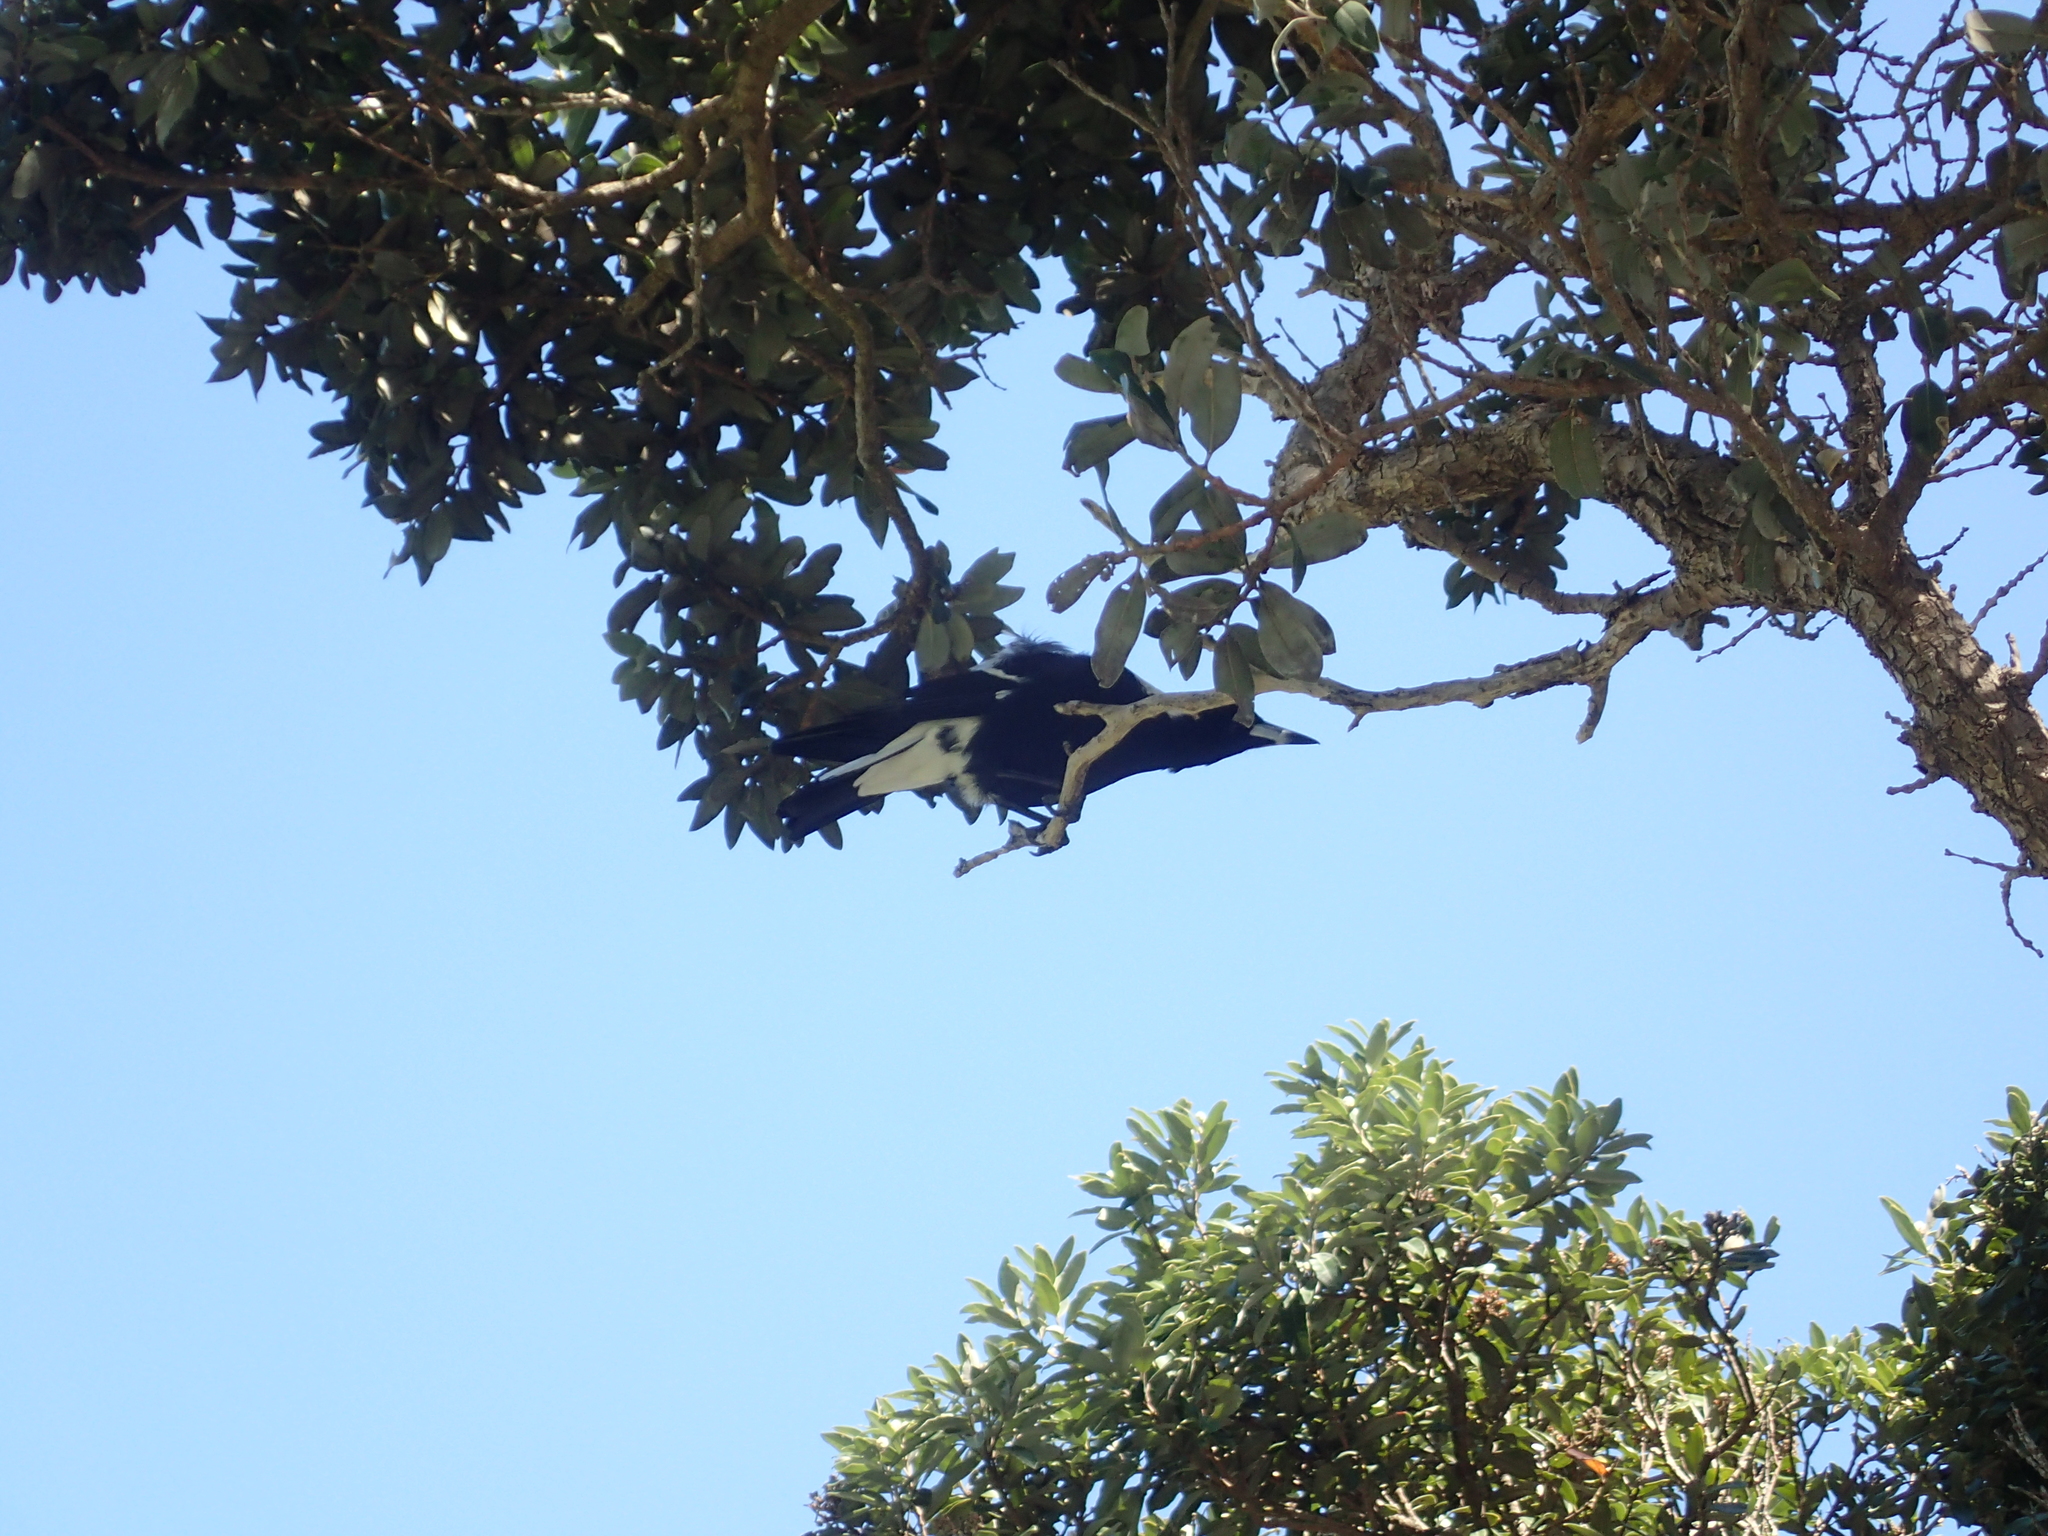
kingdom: Animalia
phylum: Chordata
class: Aves
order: Passeriformes
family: Cracticidae
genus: Gymnorhina
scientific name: Gymnorhina tibicen
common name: Australian magpie
